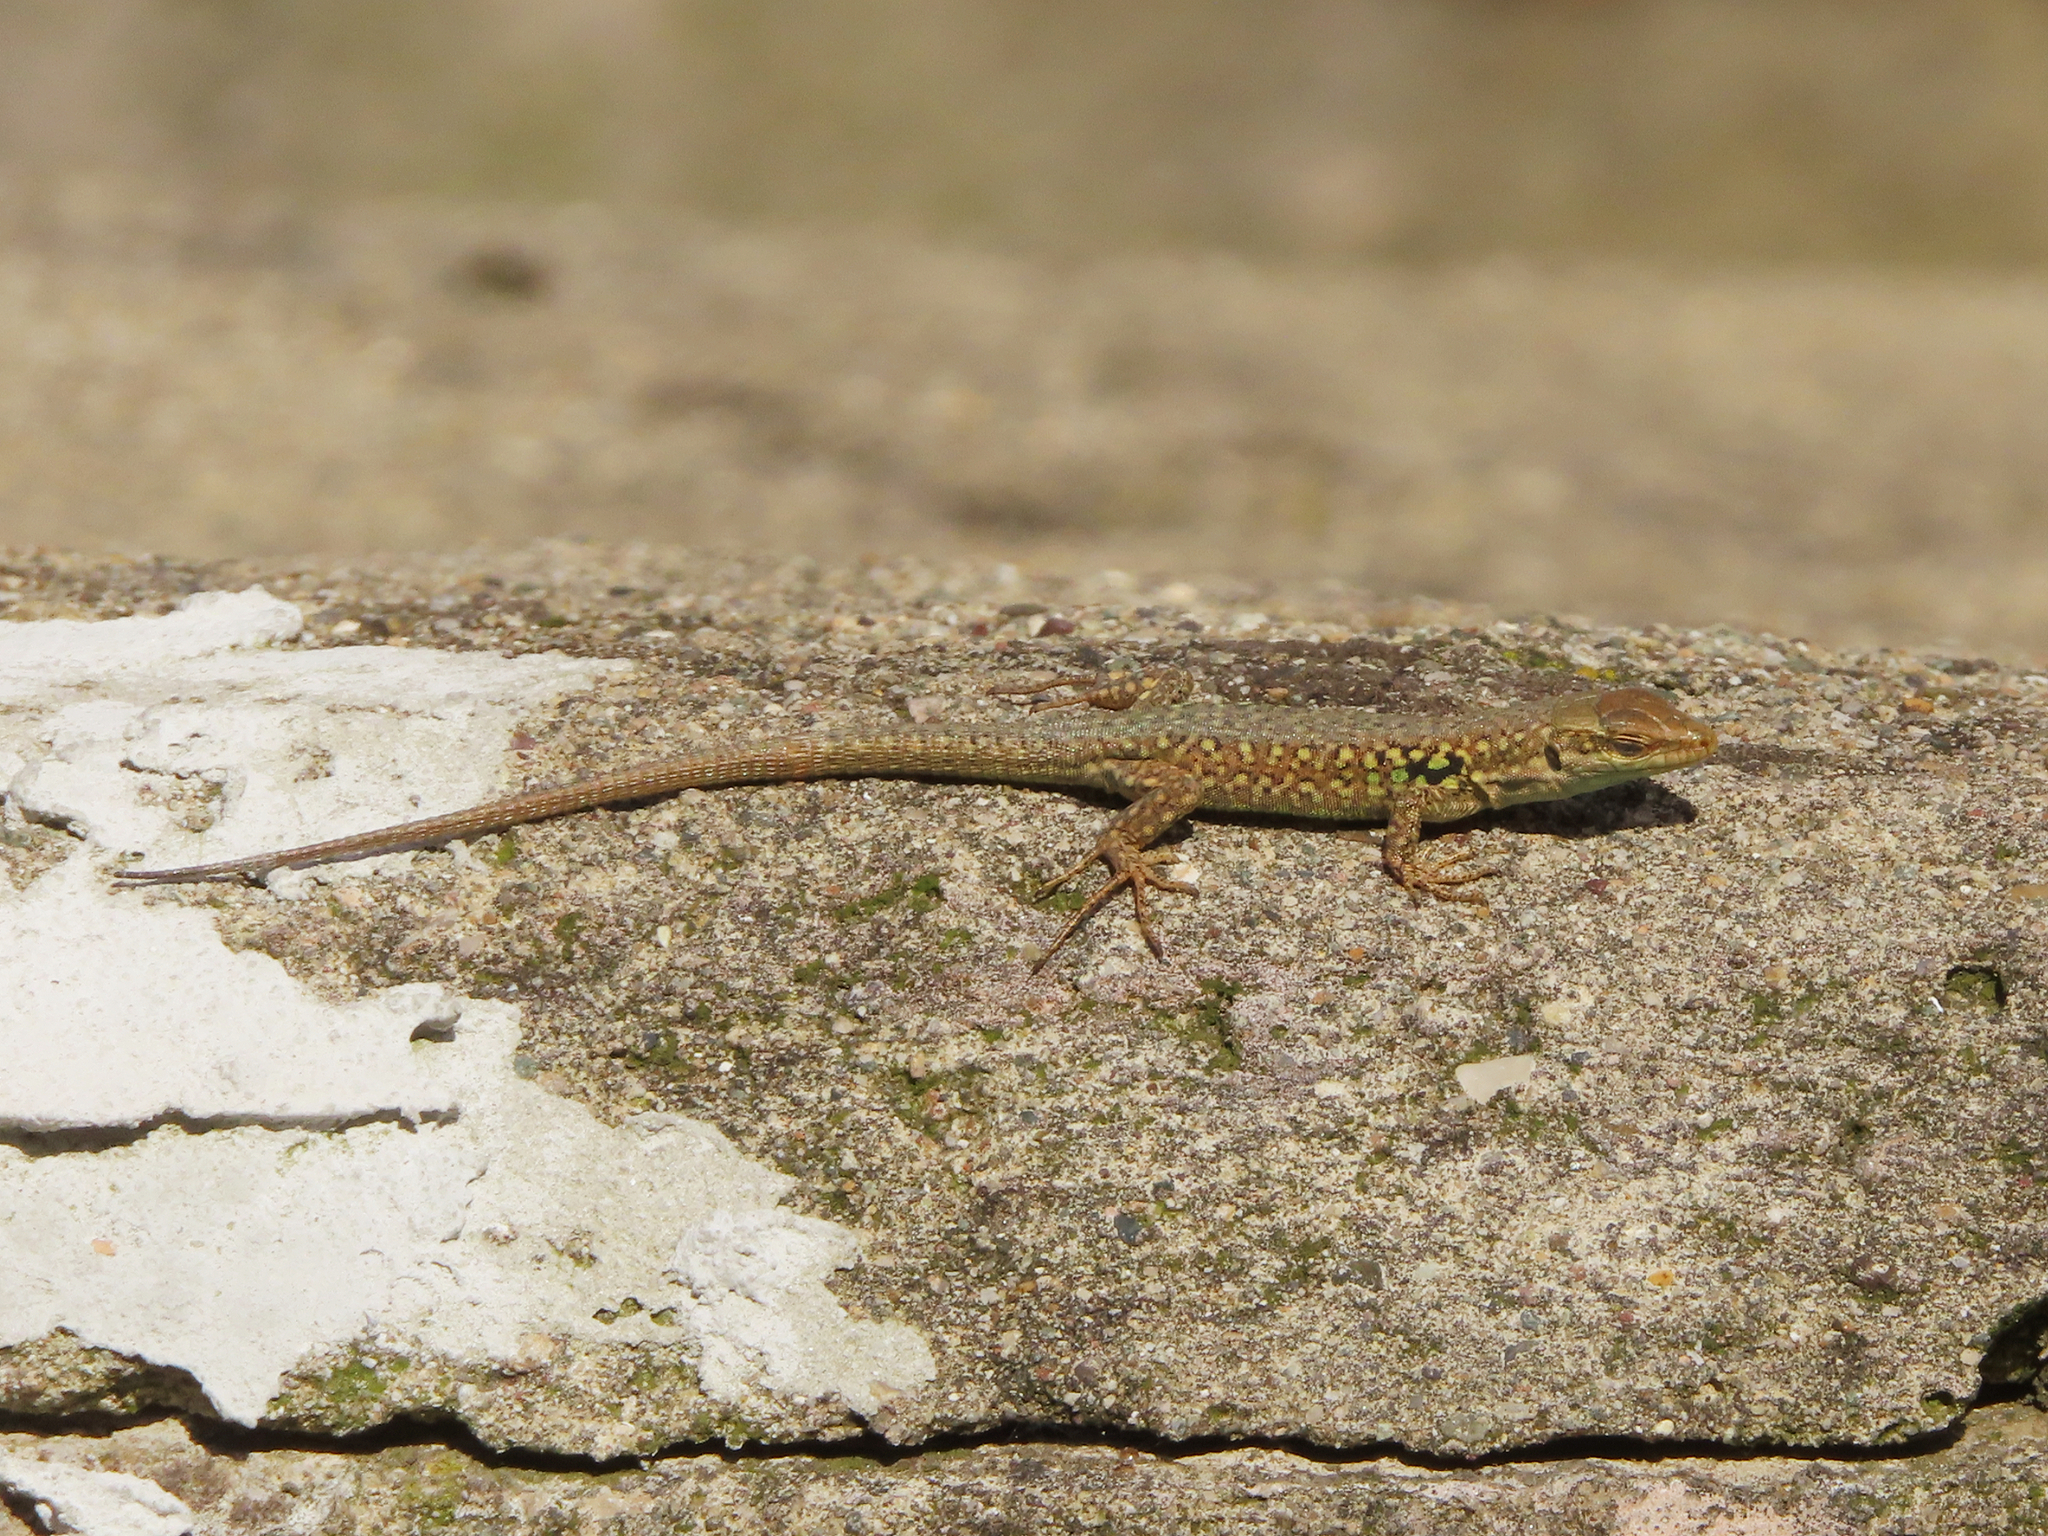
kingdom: Animalia
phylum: Chordata
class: Squamata
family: Lacertidae
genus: Podarcis
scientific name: Podarcis siculus
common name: Italian wall lizard
